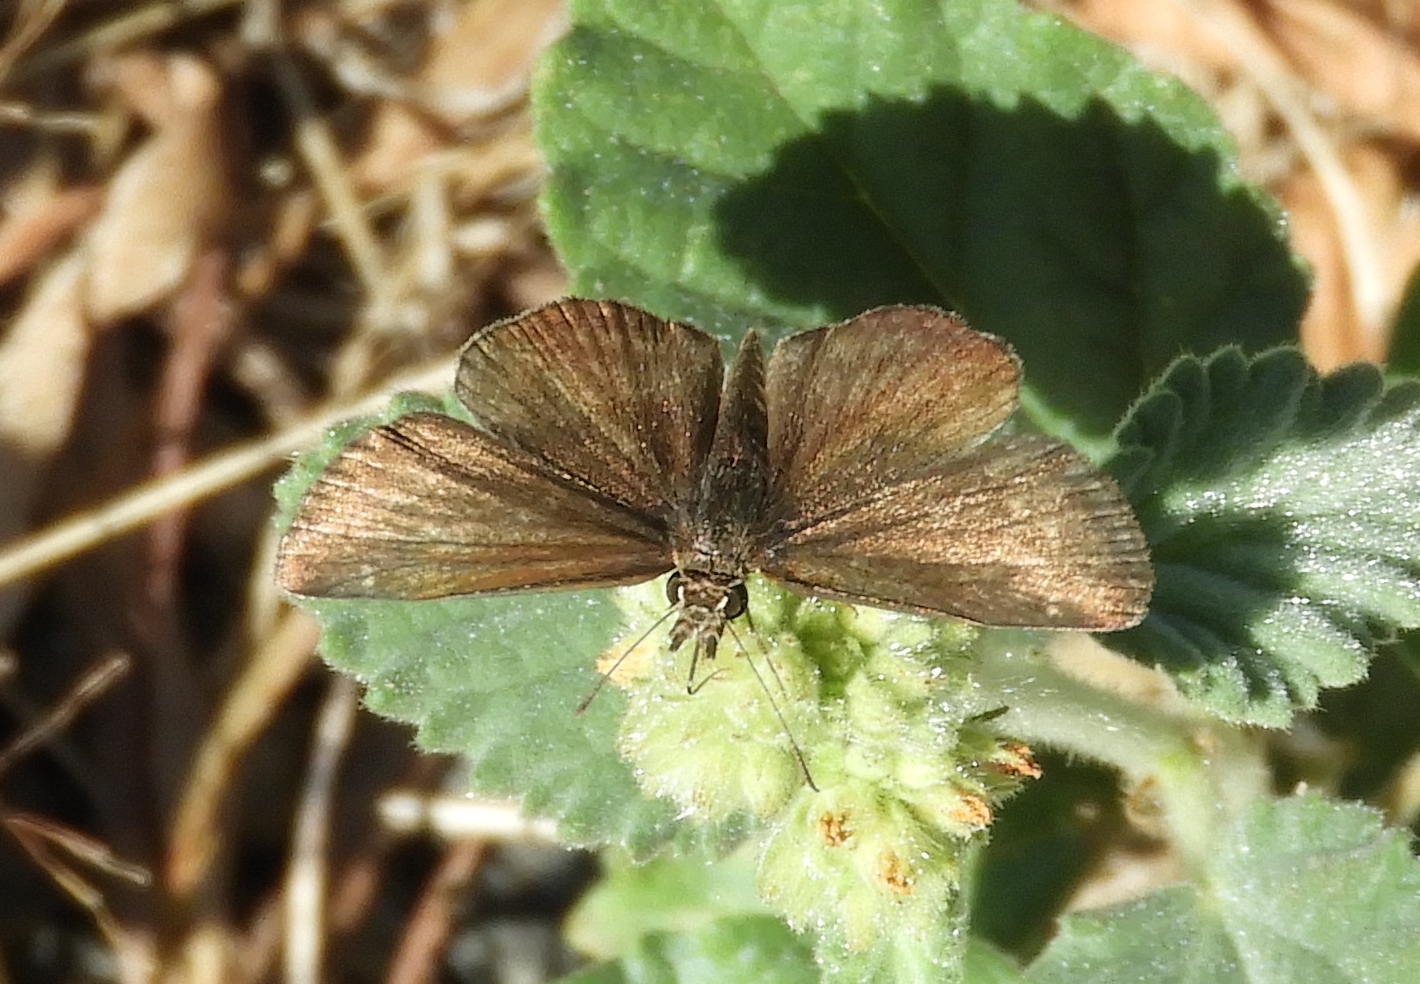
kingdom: Animalia
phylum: Arthropoda
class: Insecta
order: Lepidoptera
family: Hesperiidae
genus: Staphylus
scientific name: Staphylus
